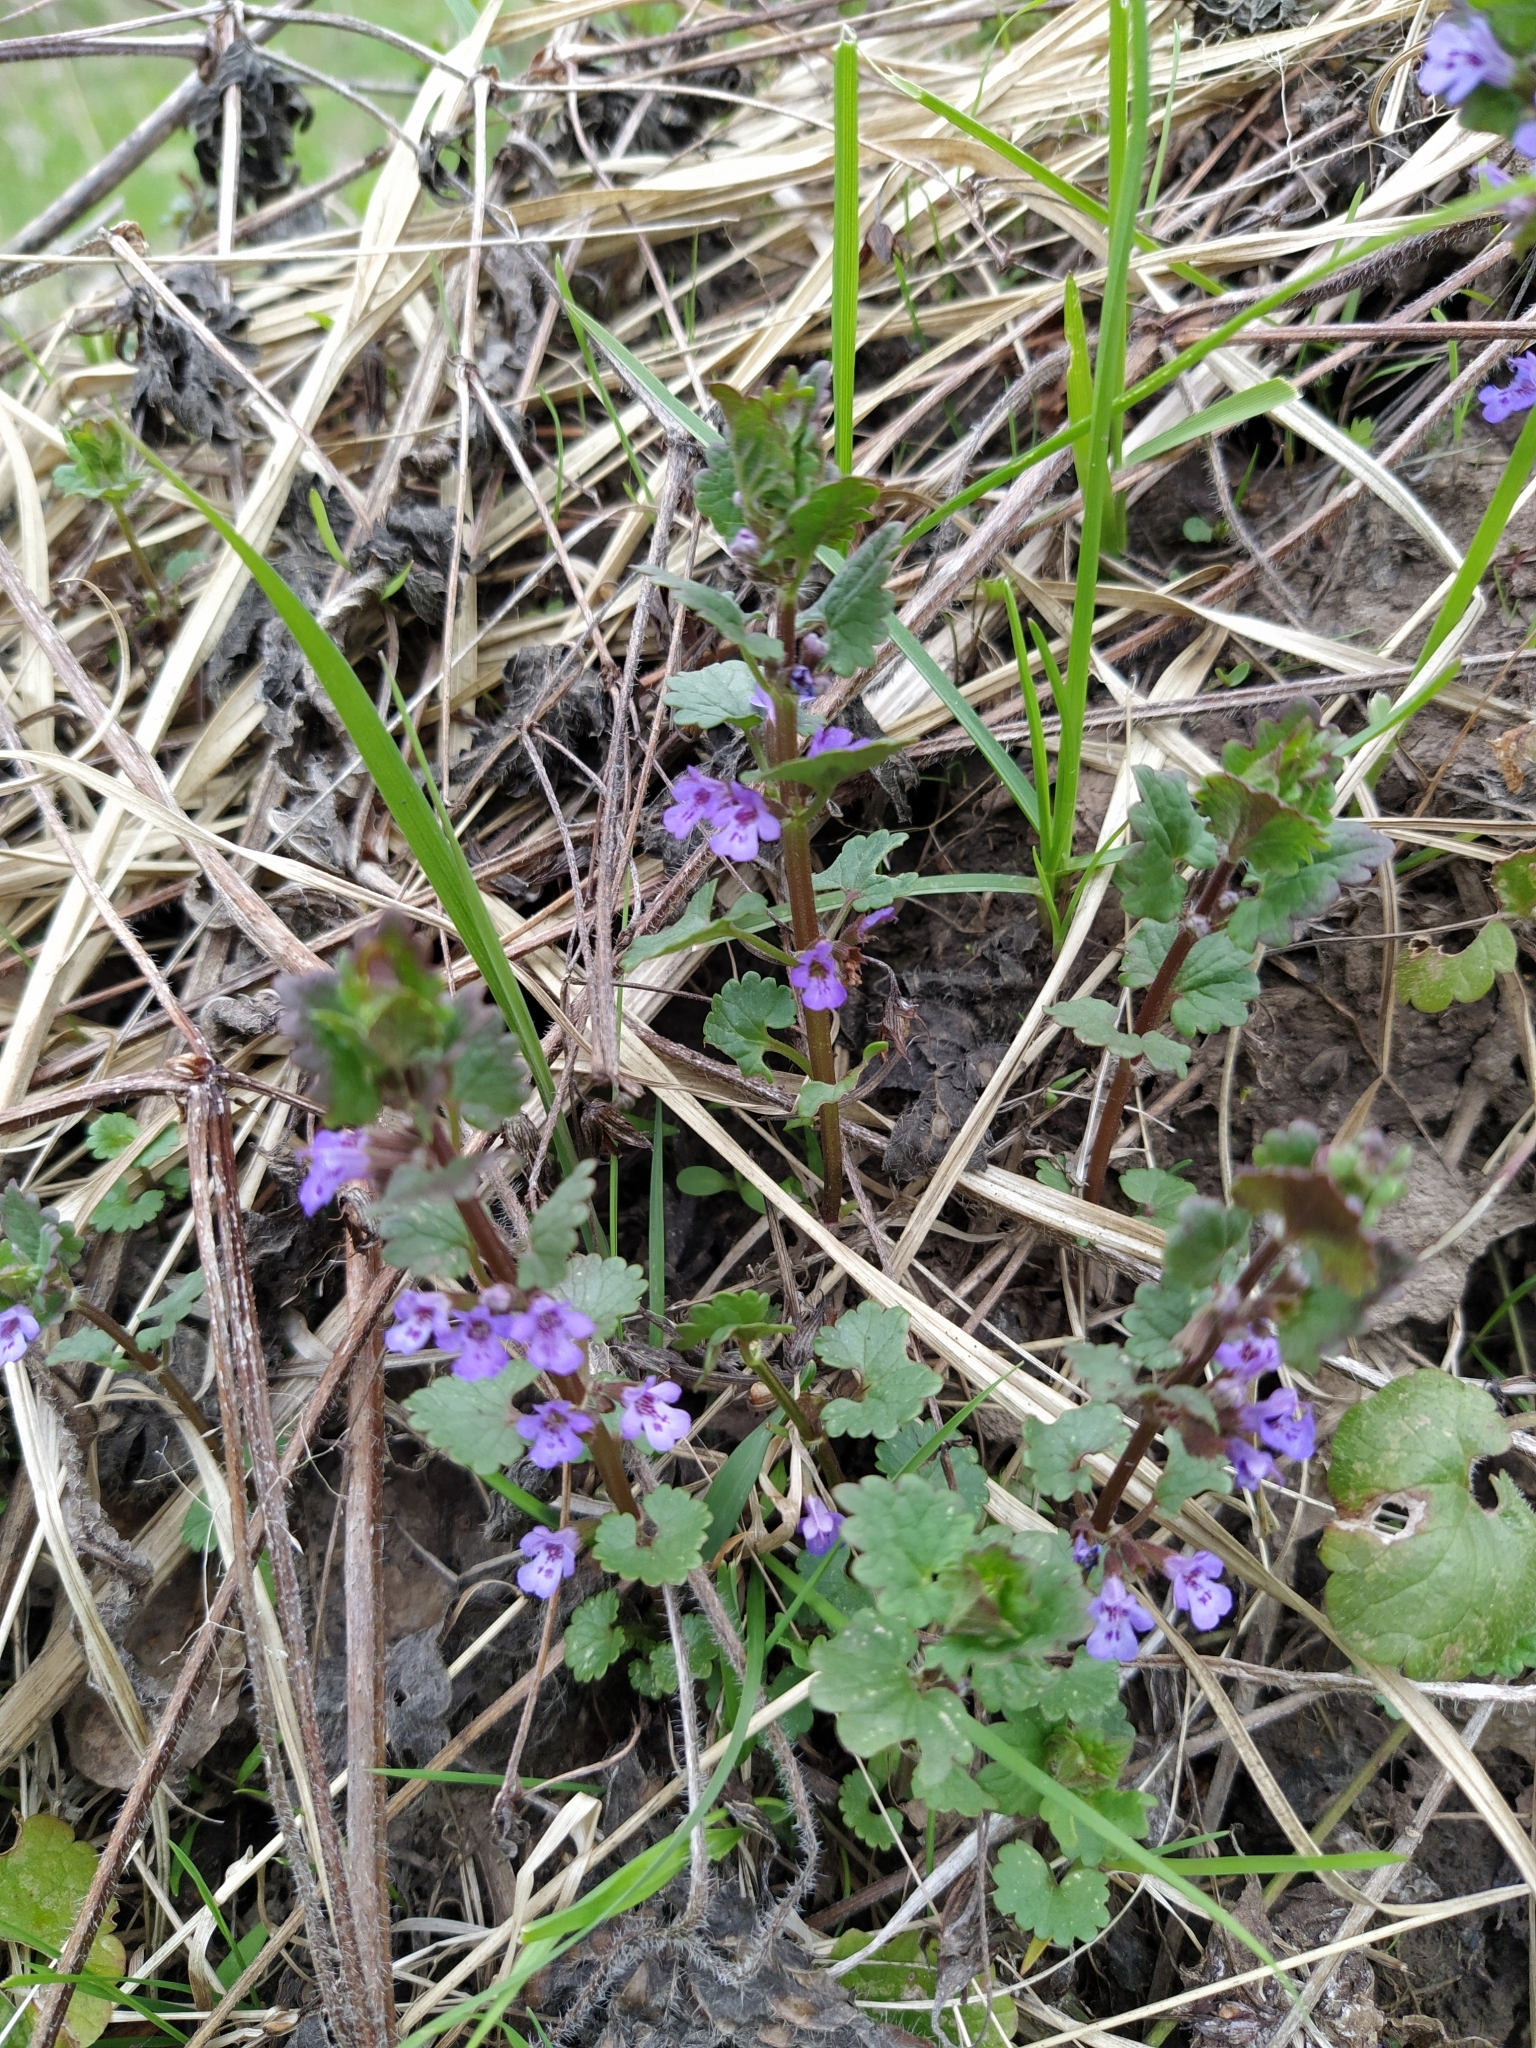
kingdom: Plantae
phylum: Tracheophyta
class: Magnoliopsida
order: Lamiales
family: Lamiaceae
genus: Glechoma
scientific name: Glechoma hederacea
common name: Ground ivy
